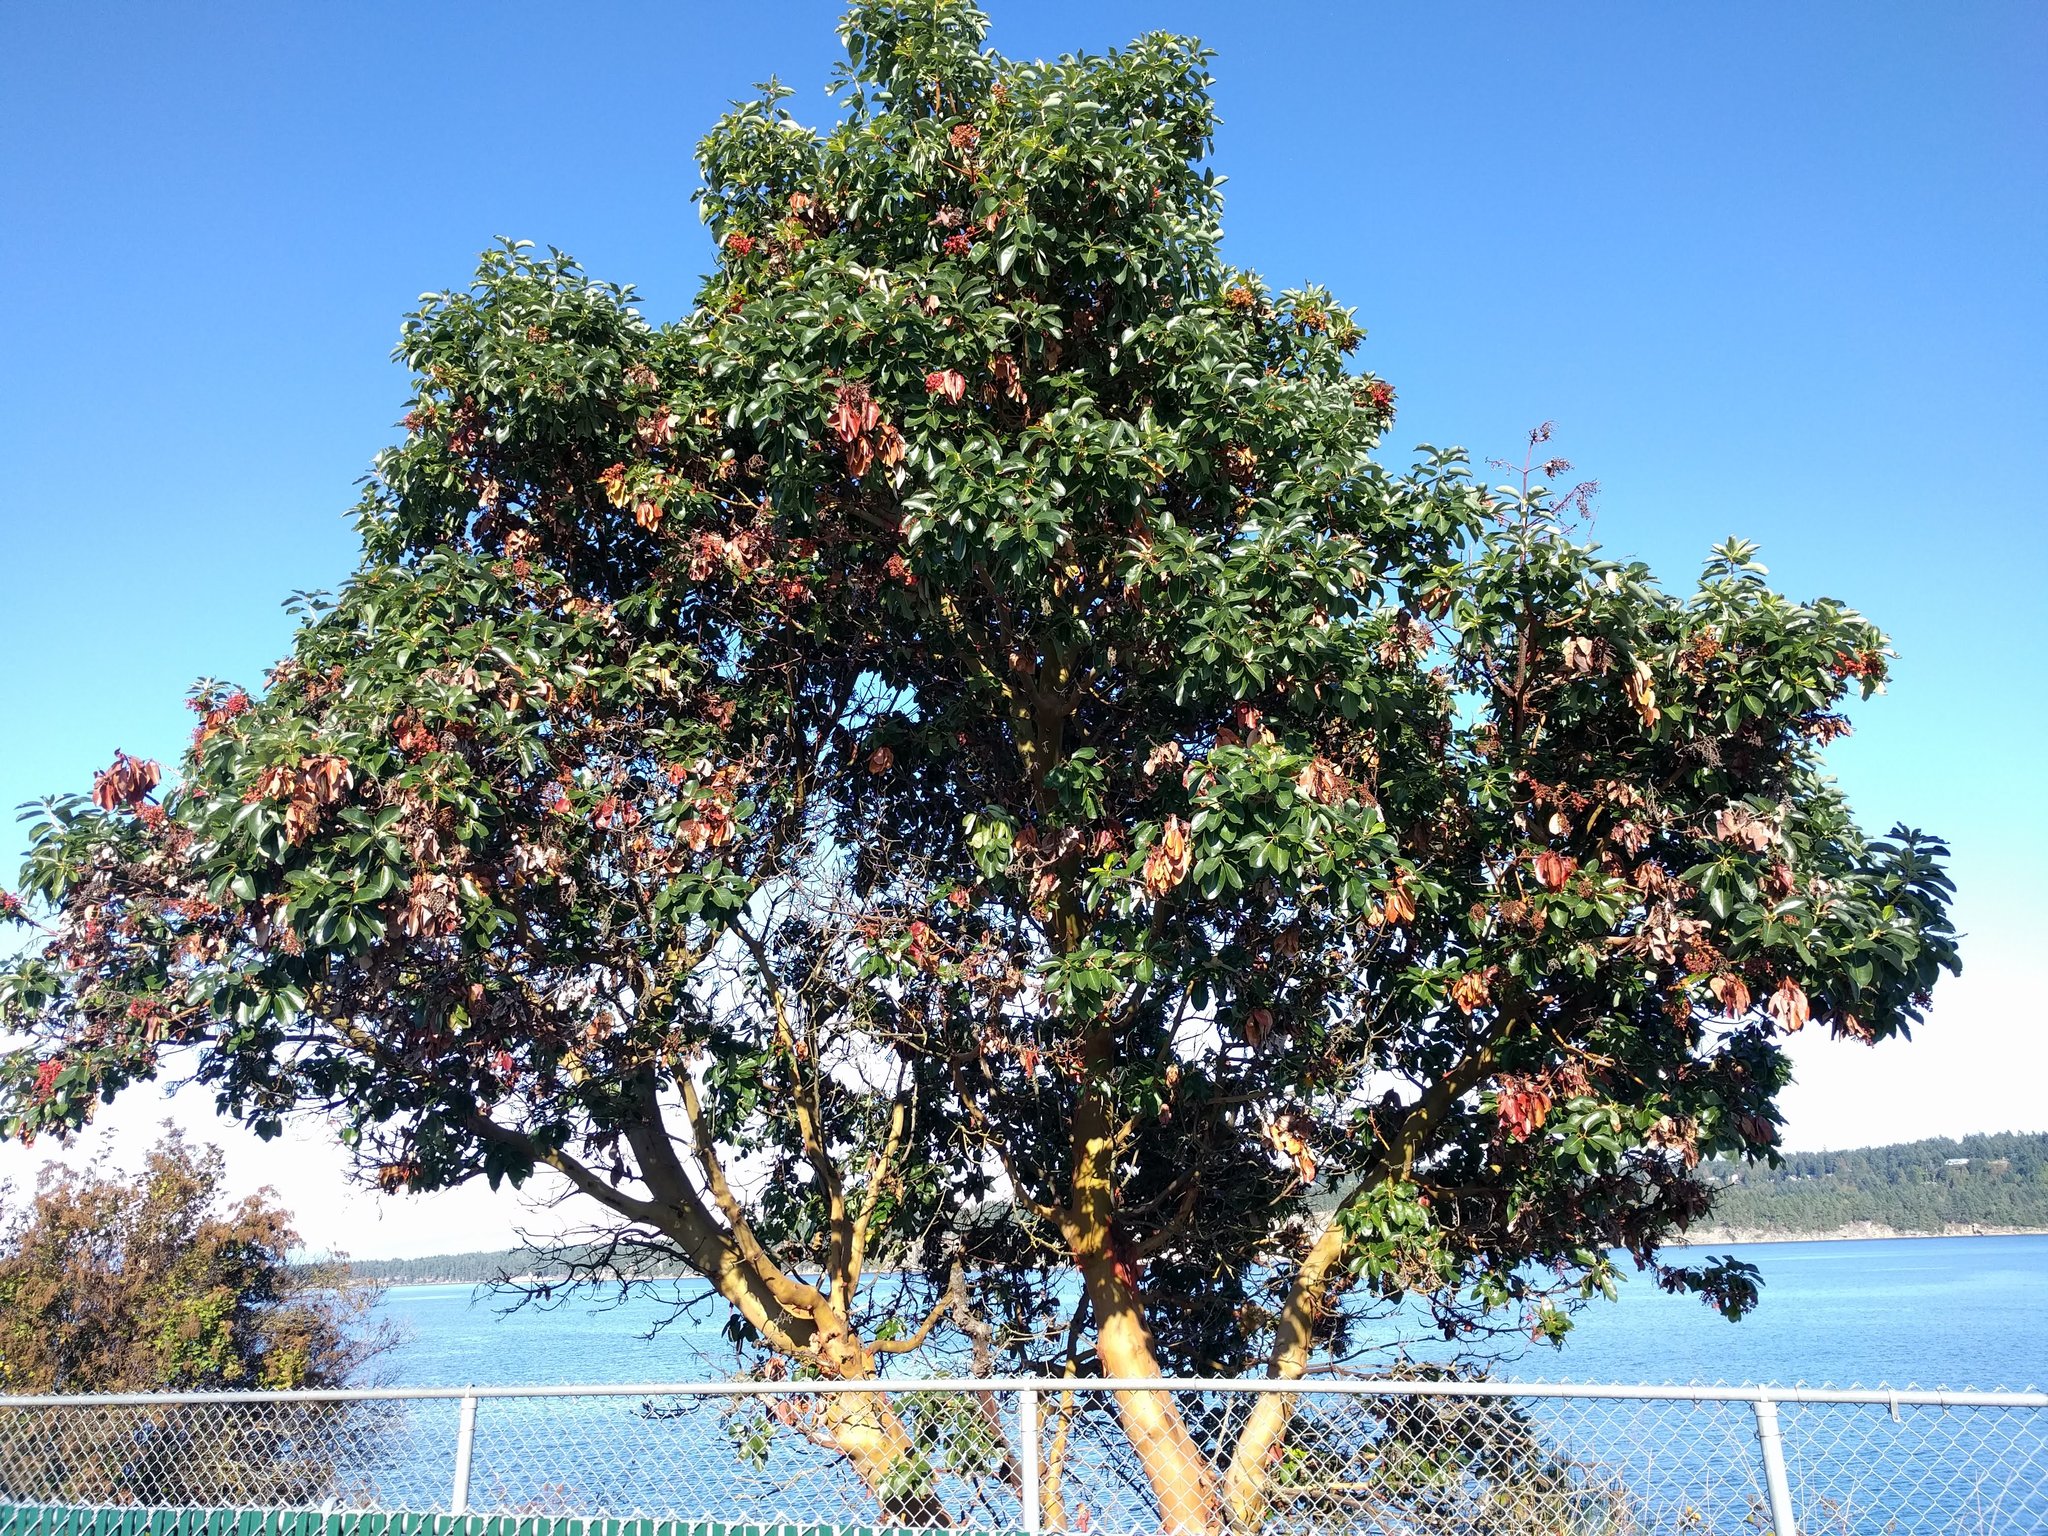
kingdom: Plantae
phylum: Tracheophyta
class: Magnoliopsida
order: Ericales
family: Ericaceae
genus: Arbutus
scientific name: Arbutus menziesii
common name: Pacific madrone
